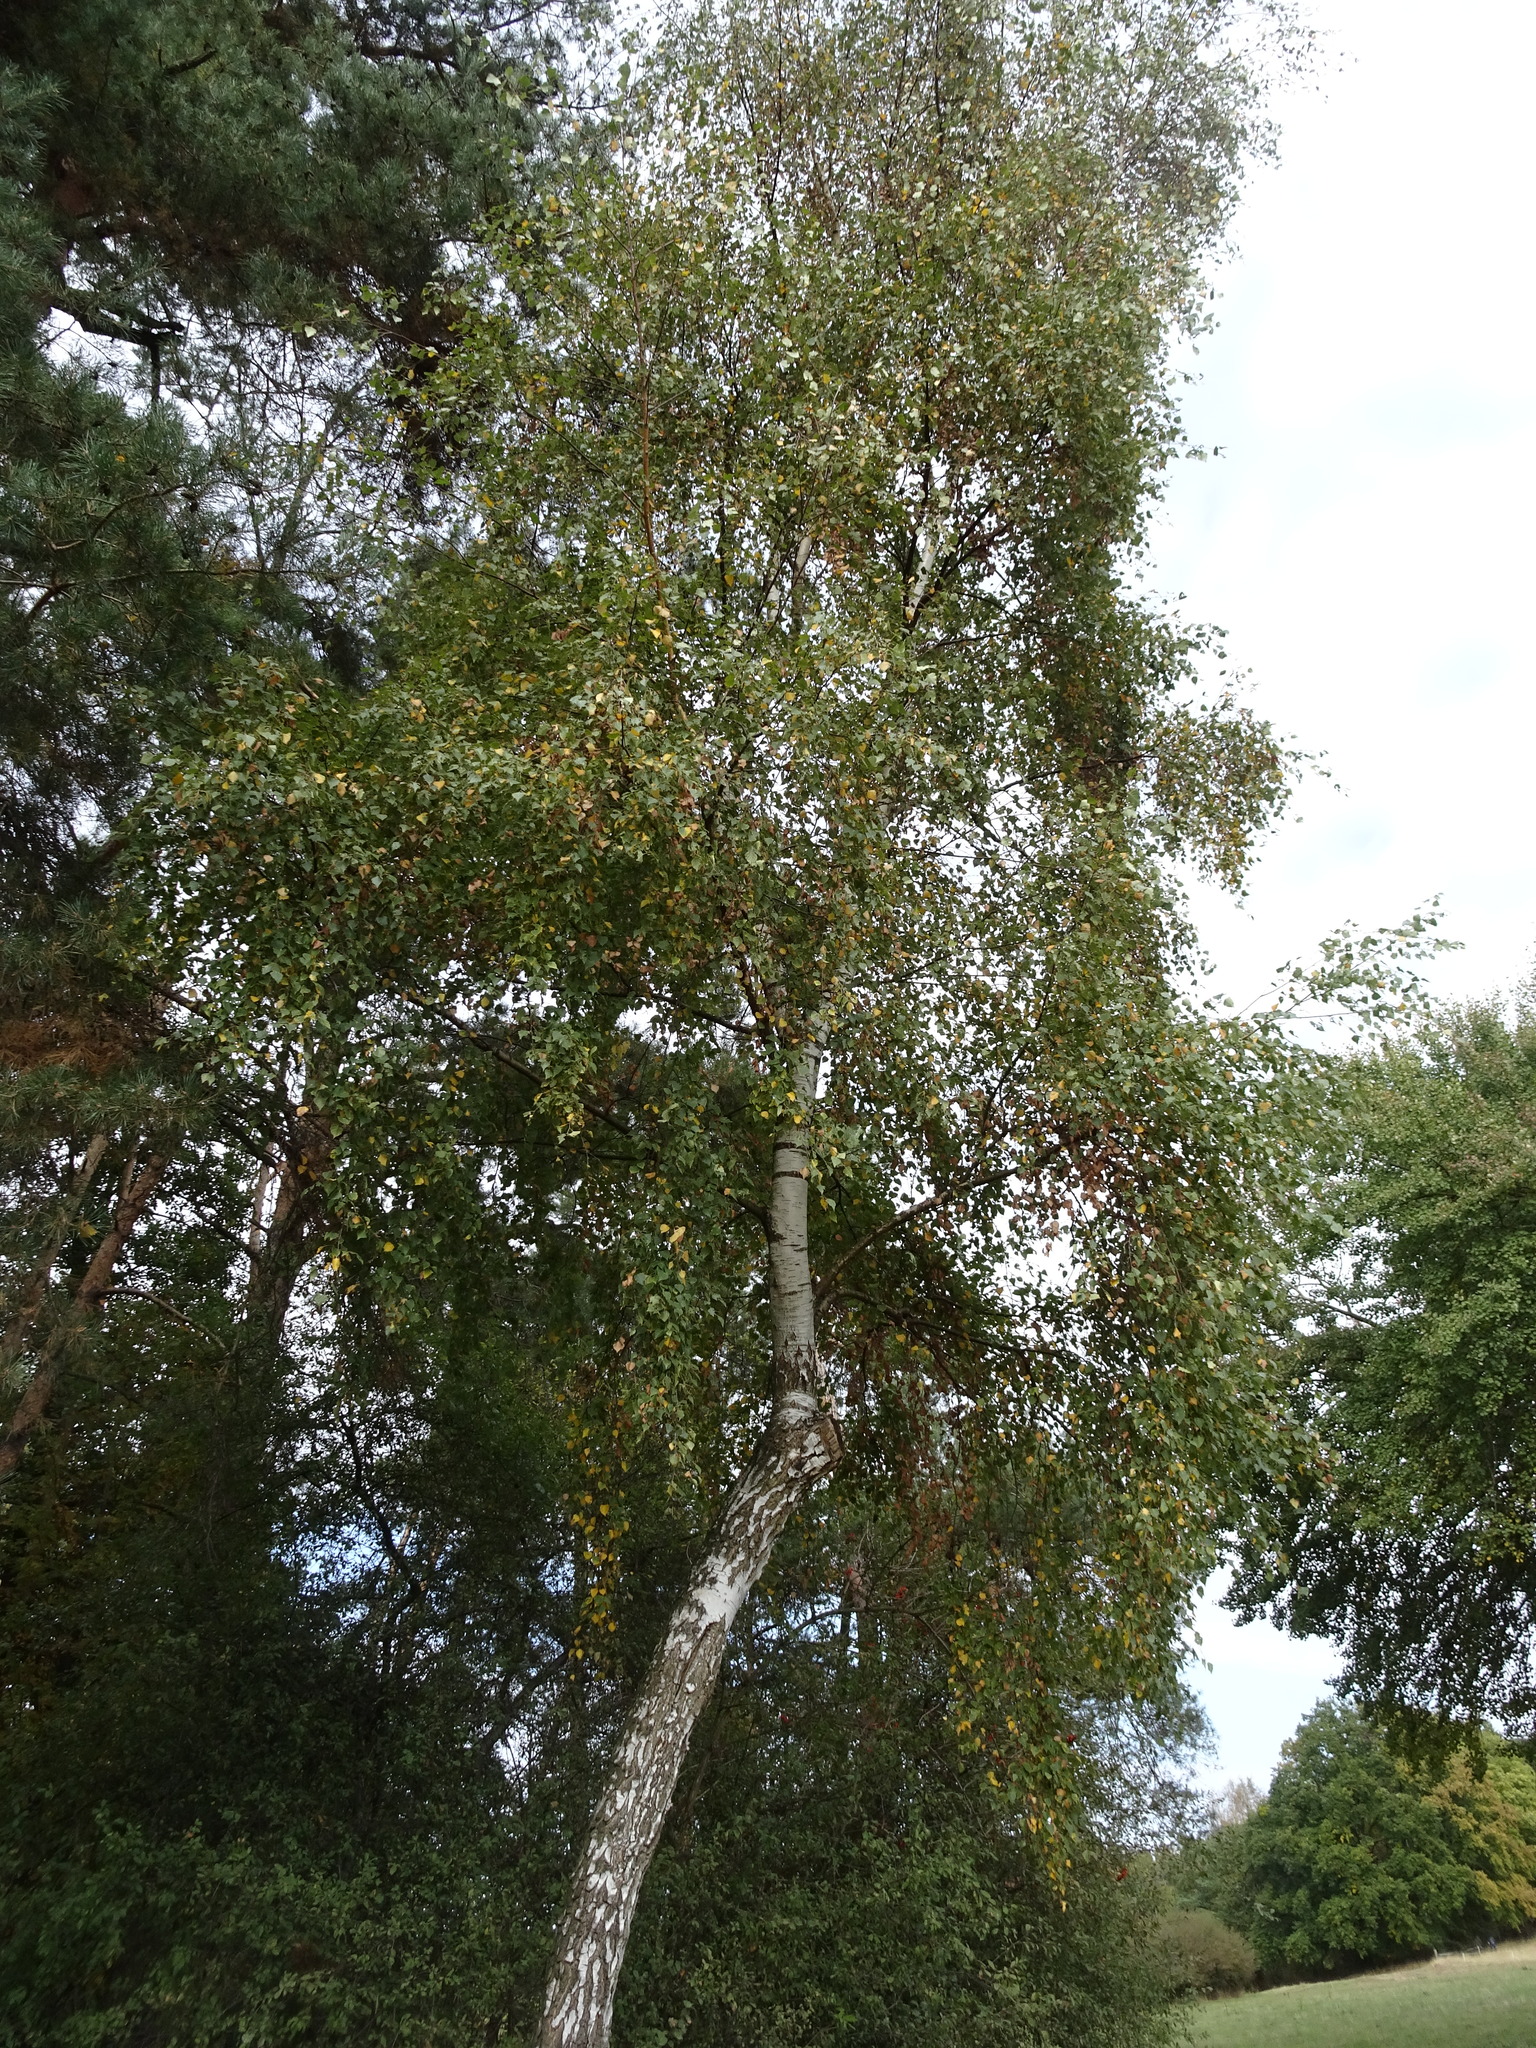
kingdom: Plantae
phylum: Tracheophyta
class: Magnoliopsida
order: Fagales
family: Betulaceae
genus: Betula
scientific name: Betula pendula
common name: Silver birch
